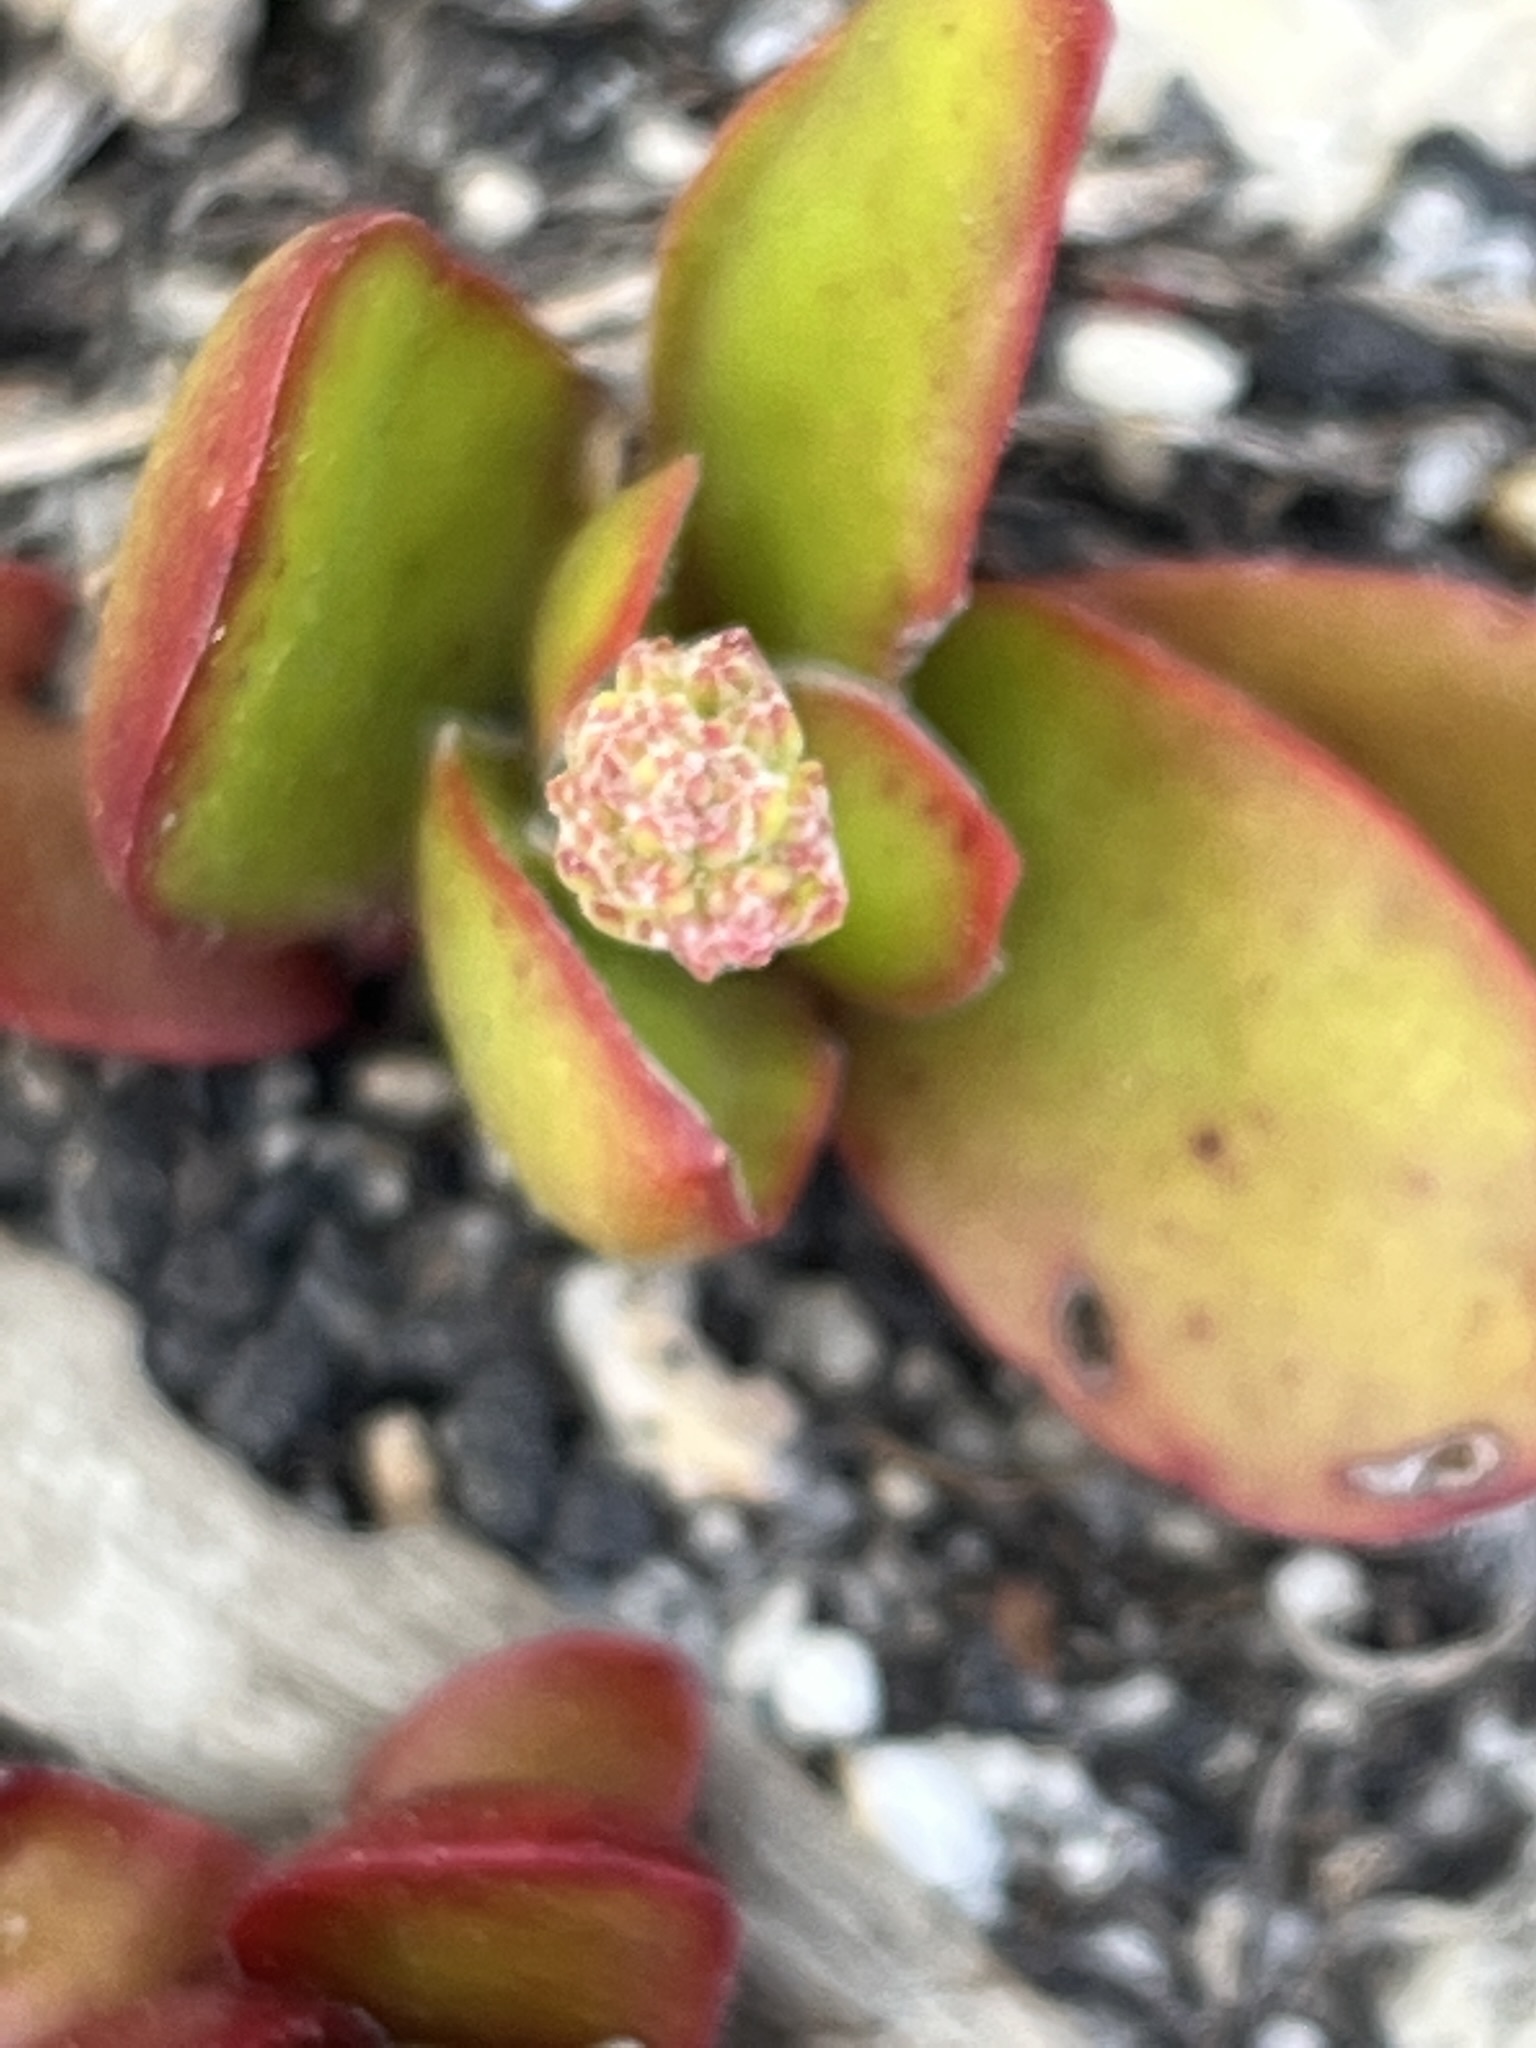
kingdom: Plantae
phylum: Tracheophyta
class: Magnoliopsida
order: Saxifragales
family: Crassulaceae
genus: Crassula
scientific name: Crassula nudicaulis
